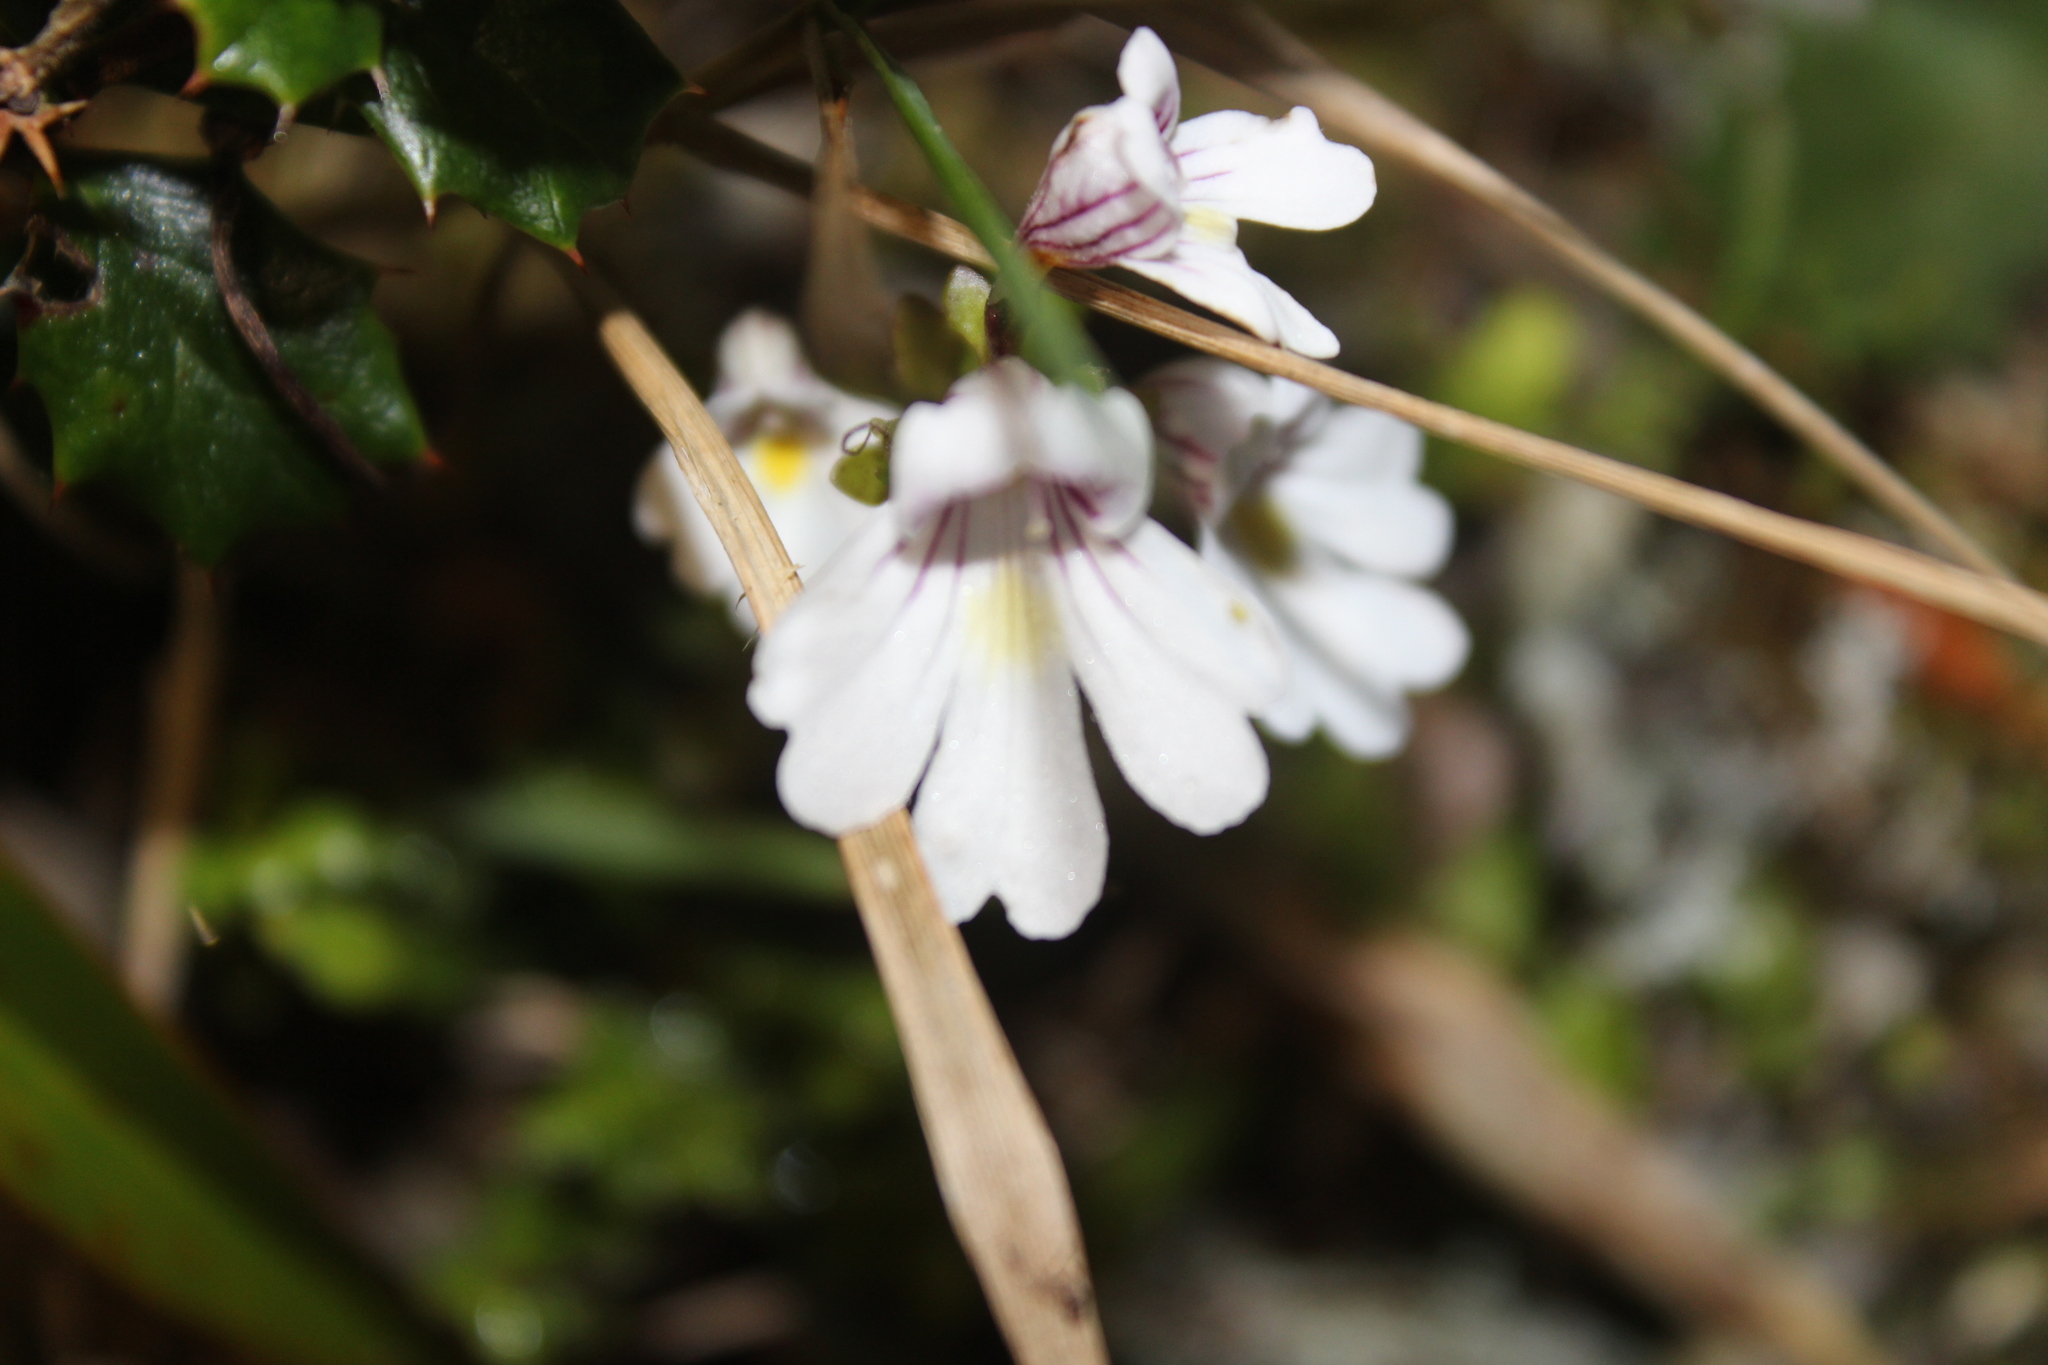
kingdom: Plantae
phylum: Tracheophyta
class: Magnoliopsida
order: Lamiales
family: Orobanchaceae
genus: Euphrasia
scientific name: Euphrasia cuneata
